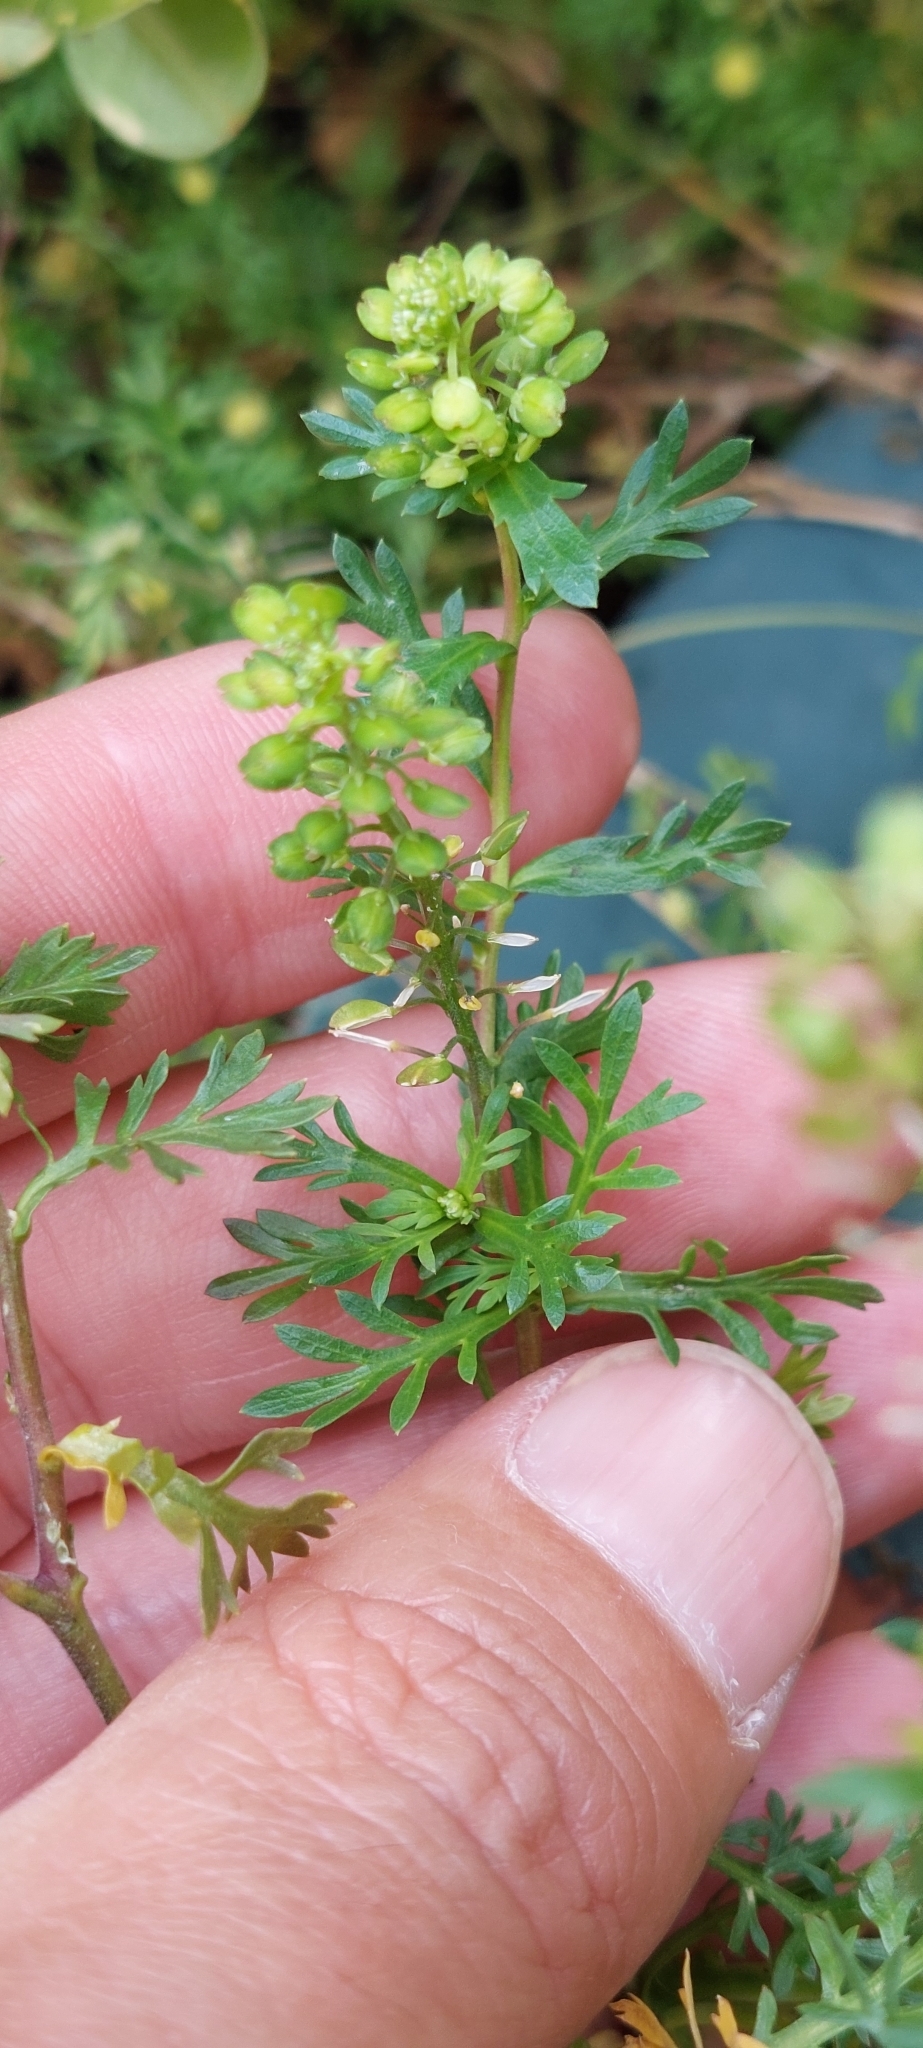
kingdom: Plantae
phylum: Tracheophyta
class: Magnoliopsida
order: Brassicales
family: Brassicaceae
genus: Lepidium
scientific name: Lepidium bipinnatifidum
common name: Wayside pepperwort
